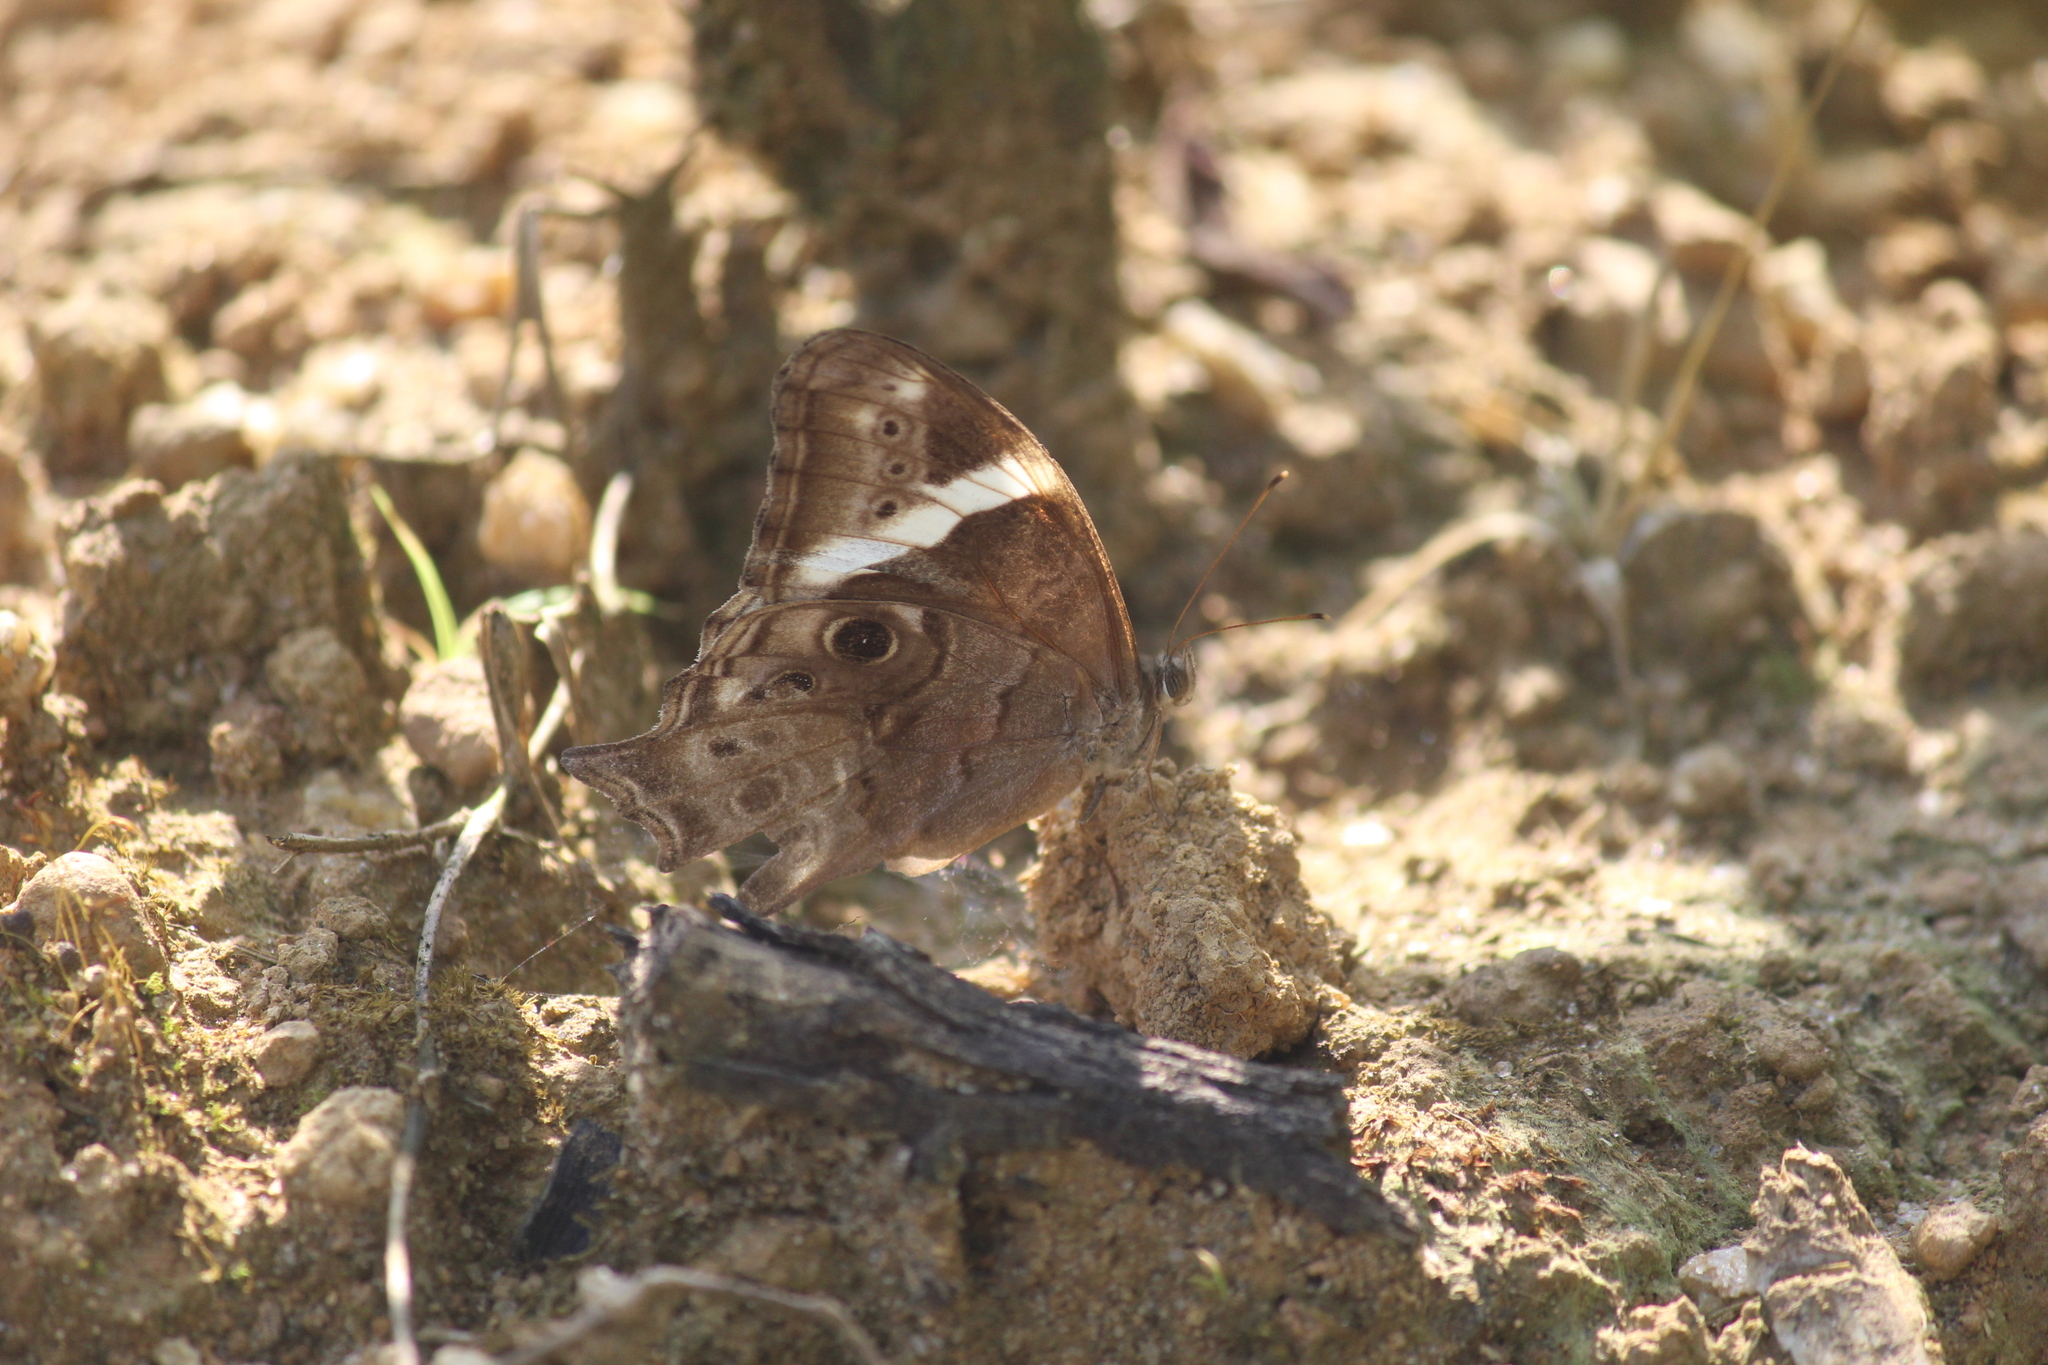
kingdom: Animalia
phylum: Arthropoda
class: Insecta
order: Lepidoptera
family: Nymphalidae
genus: Lethe
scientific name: Lethe drypetis
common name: Tamil treebrown
